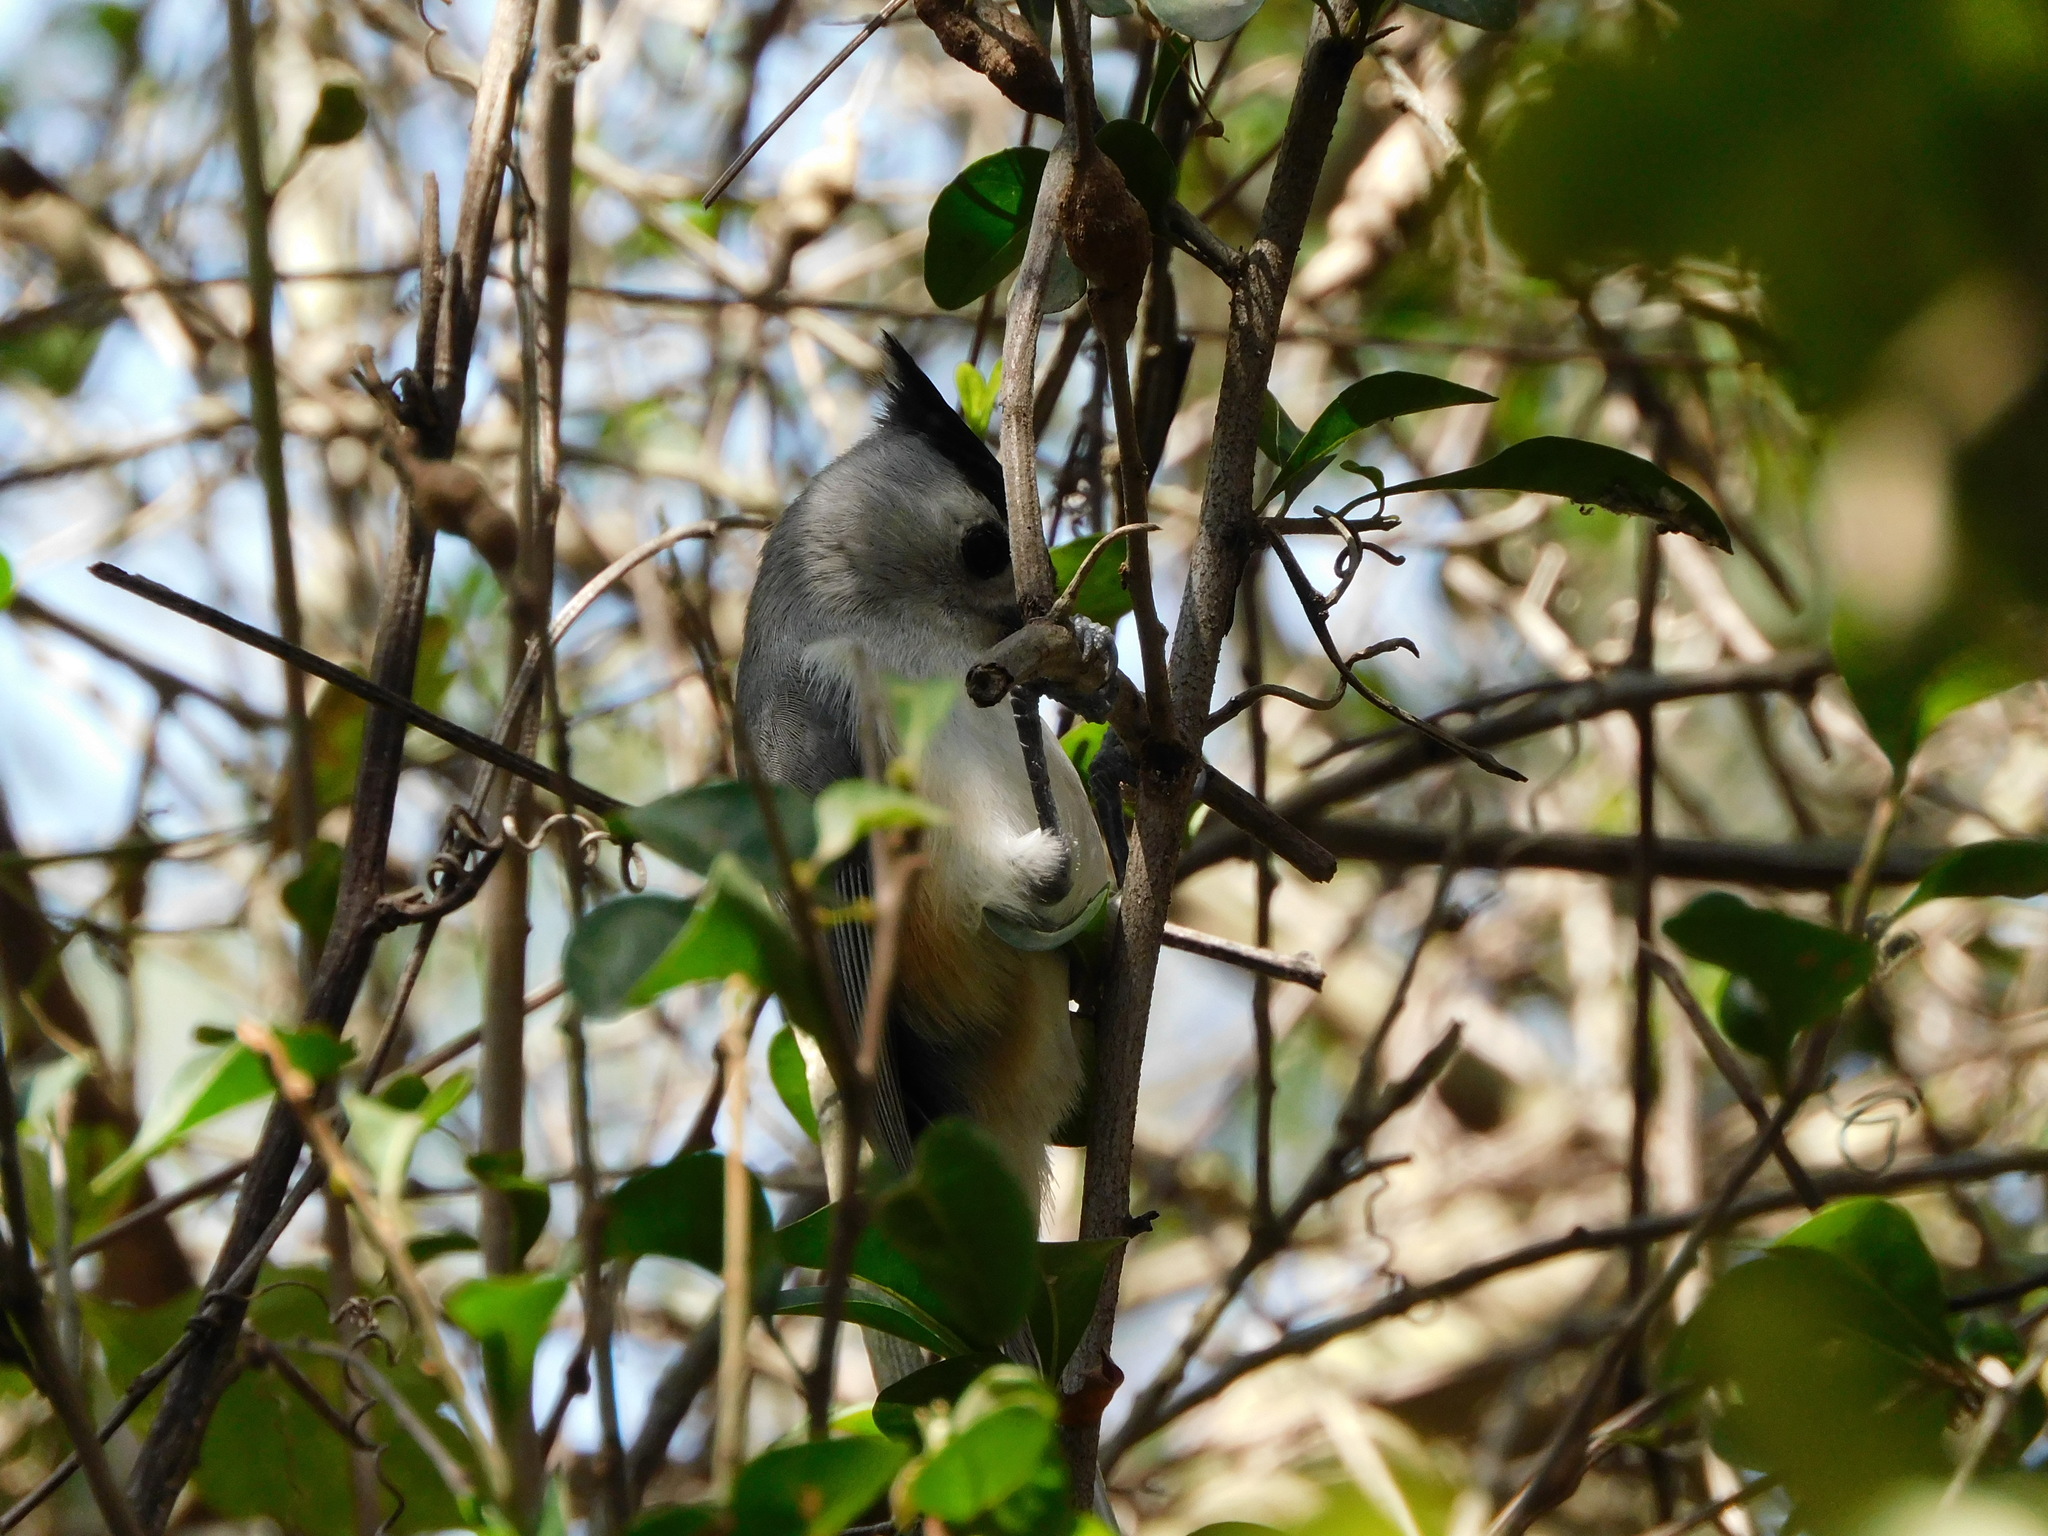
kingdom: Animalia
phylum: Chordata
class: Aves
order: Passeriformes
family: Paridae
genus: Baeolophus
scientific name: Baeolophus atricristatus
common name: Black-crested titmouse
